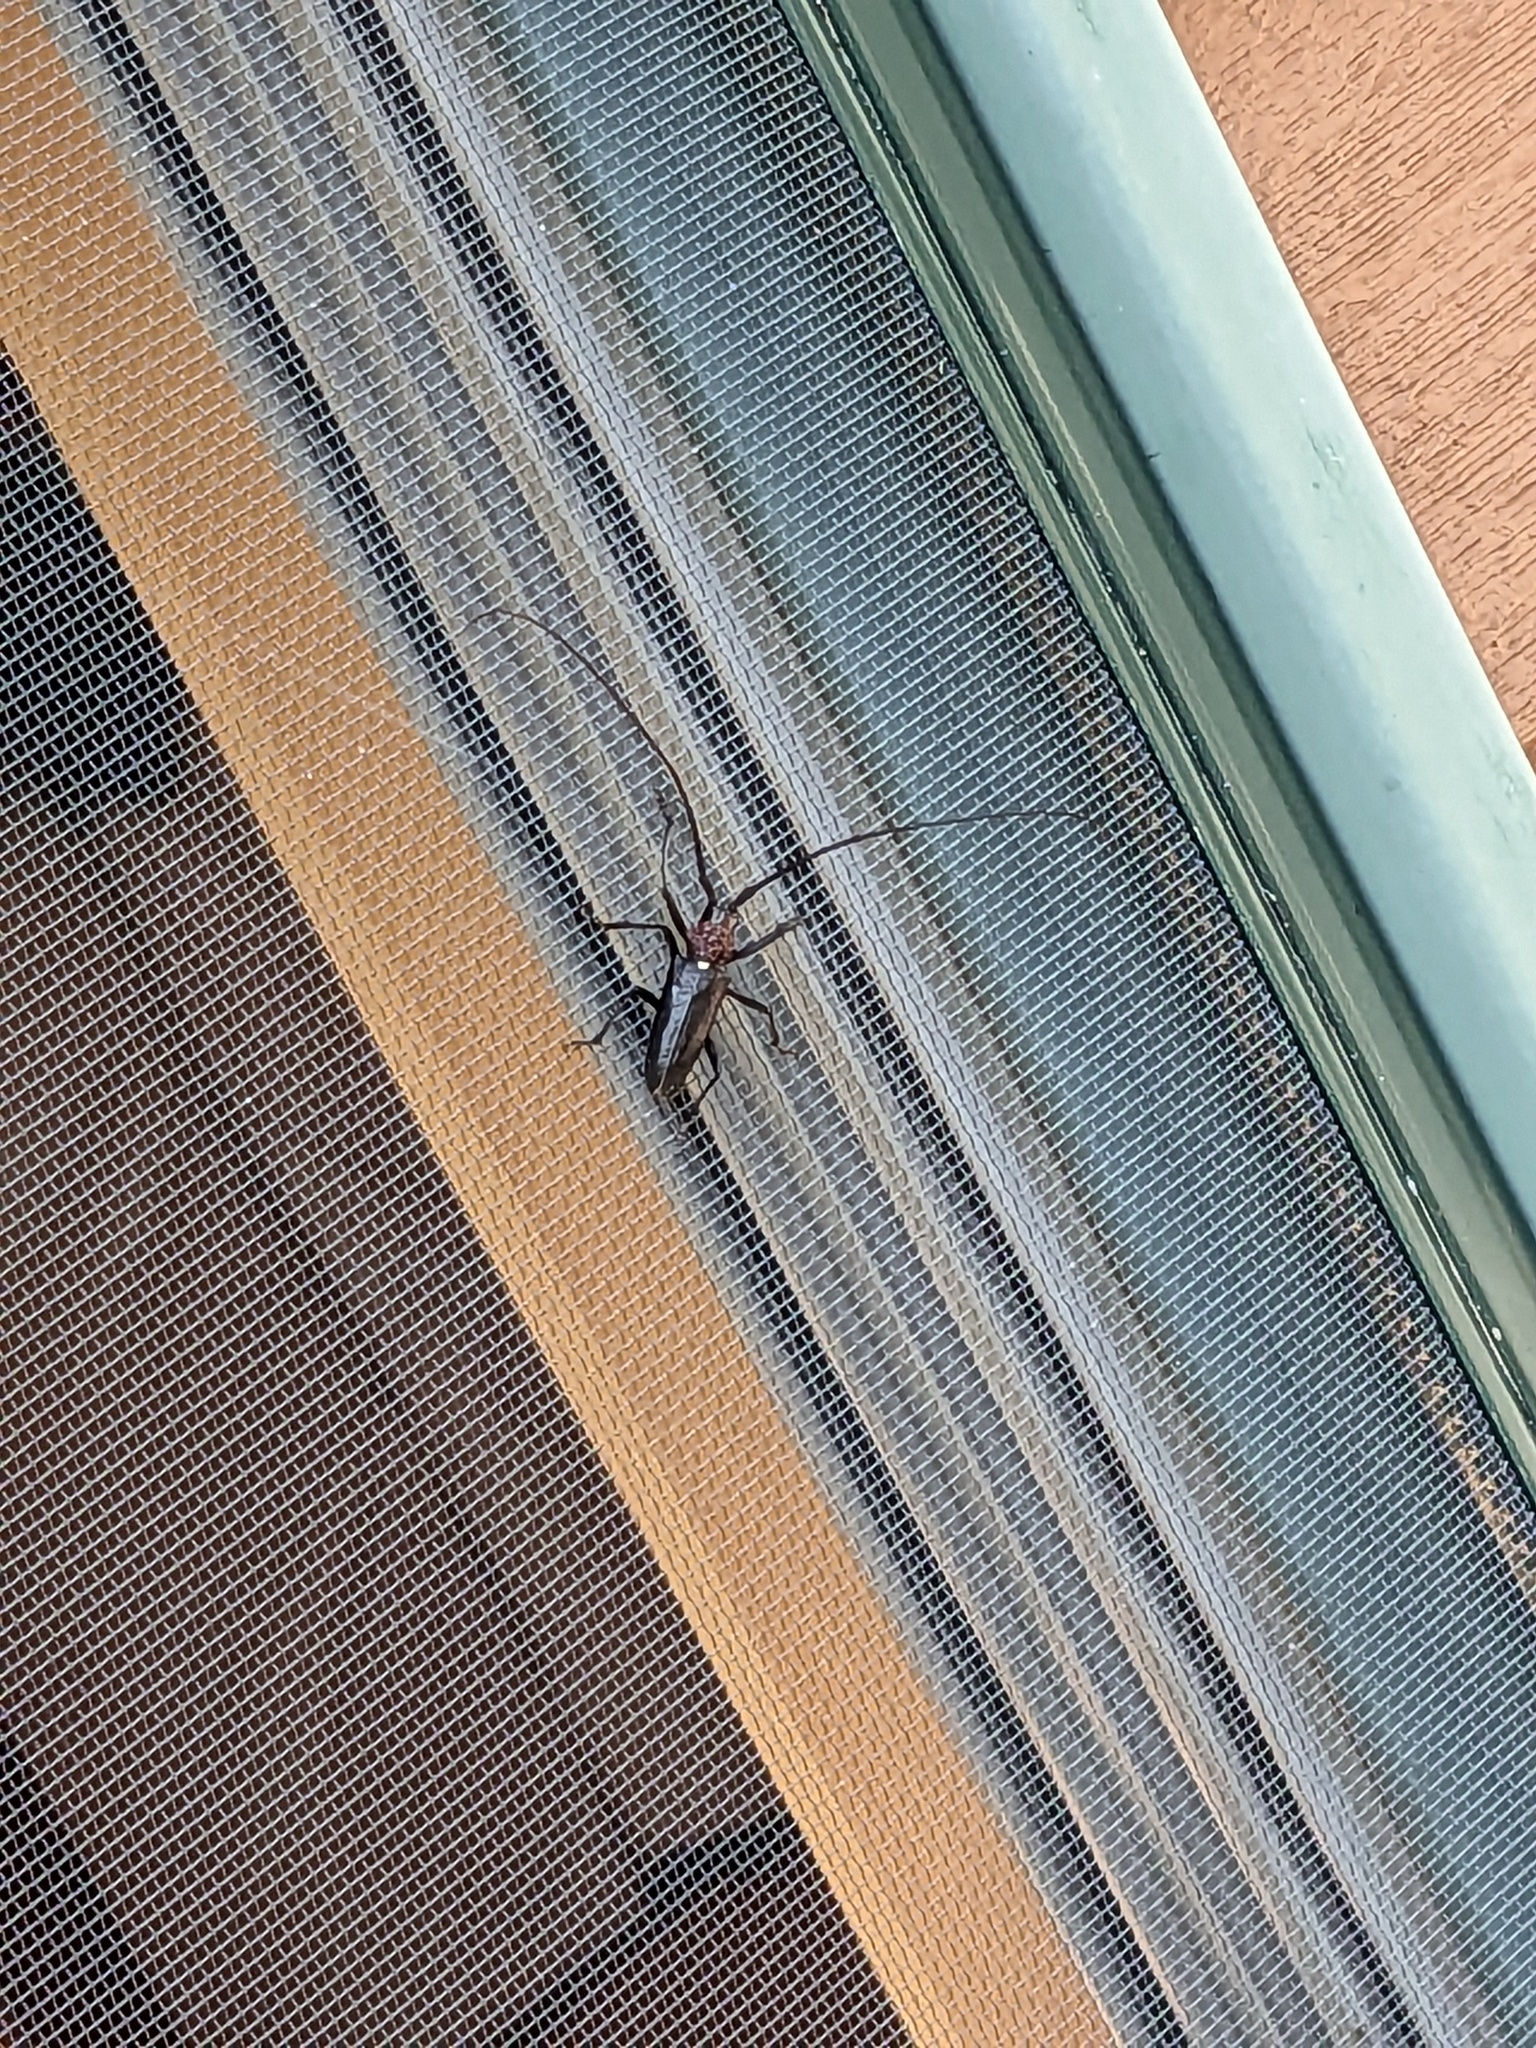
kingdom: Animalia
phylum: Arthropoda
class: Insecta
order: Coleoptera
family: Cerambycidae
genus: Monochamus
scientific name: Monochamus scutellatus
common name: White-spotted sawyer beetle
